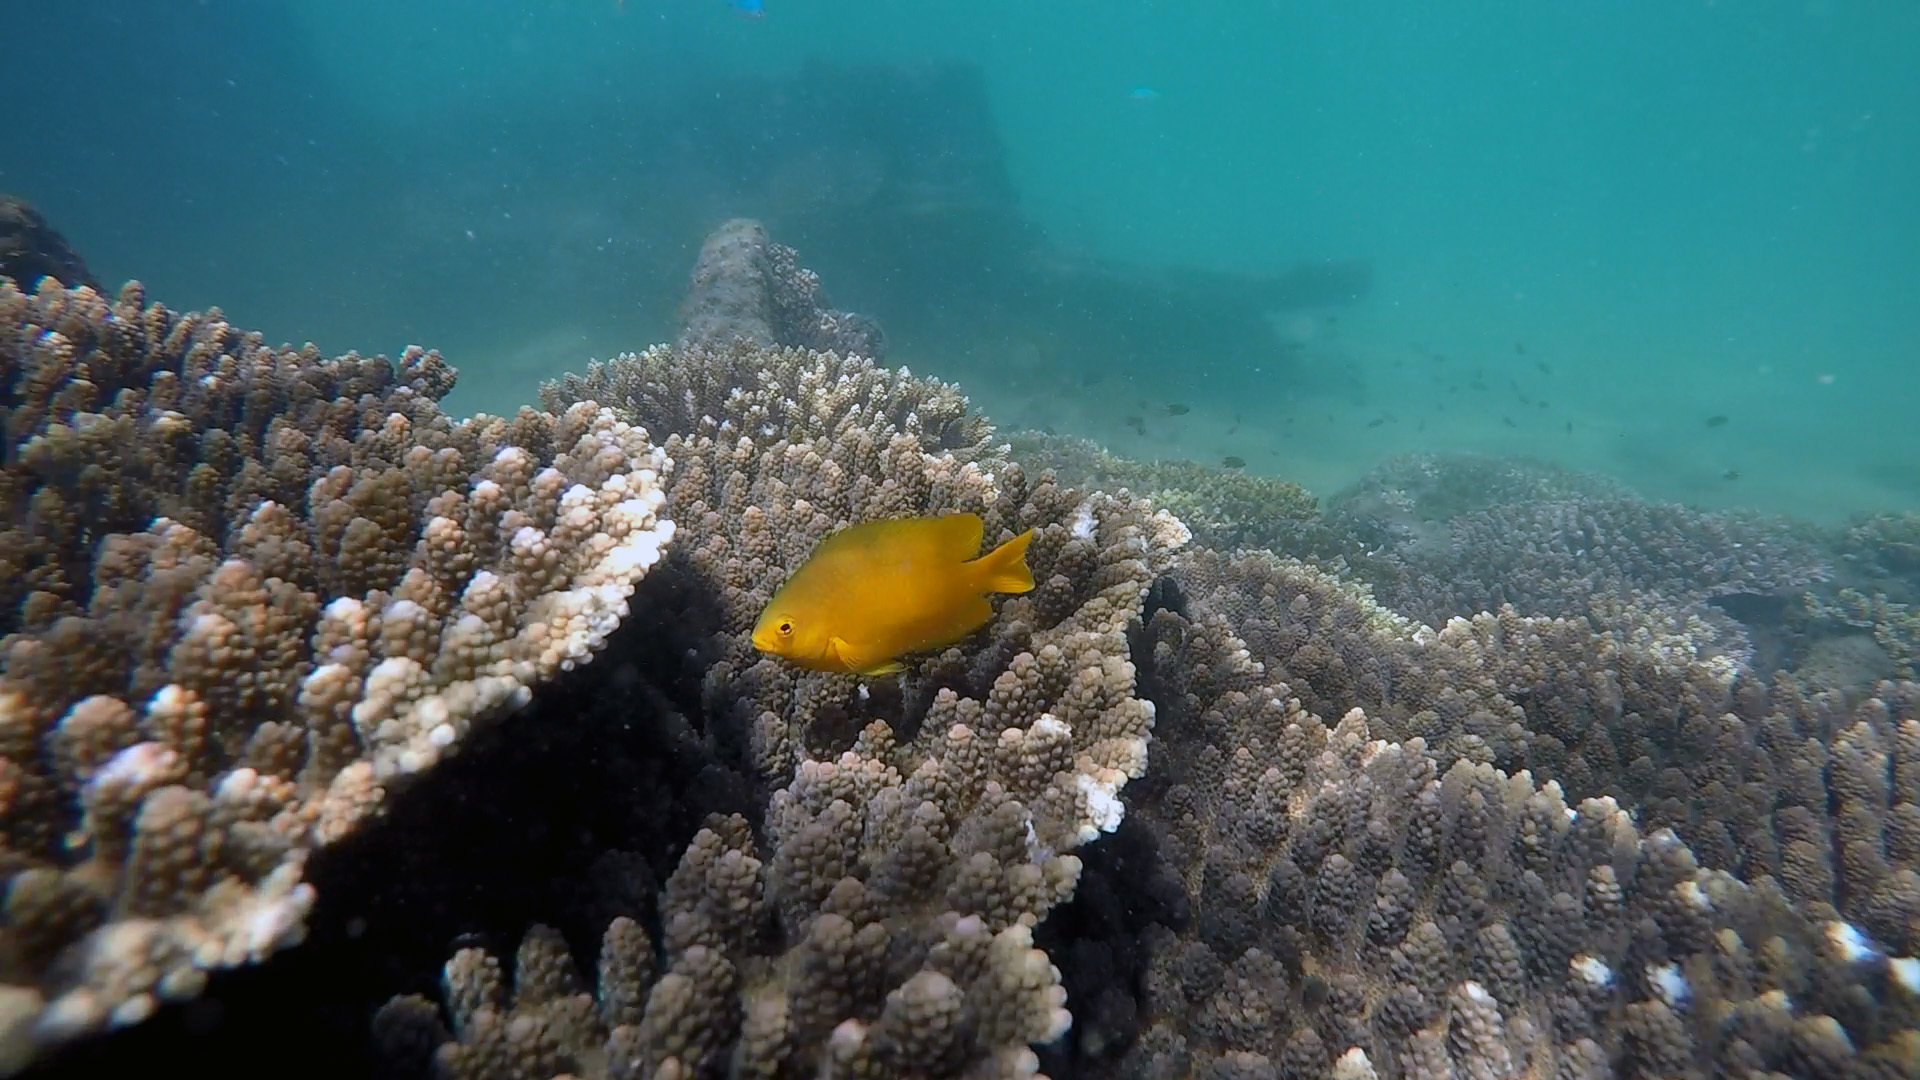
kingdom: Animalia
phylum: Chordata
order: Perciformes
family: Pomacentridae
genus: Pomacentrus
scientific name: Pomacentrus moluccensis
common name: Lemon damsel
